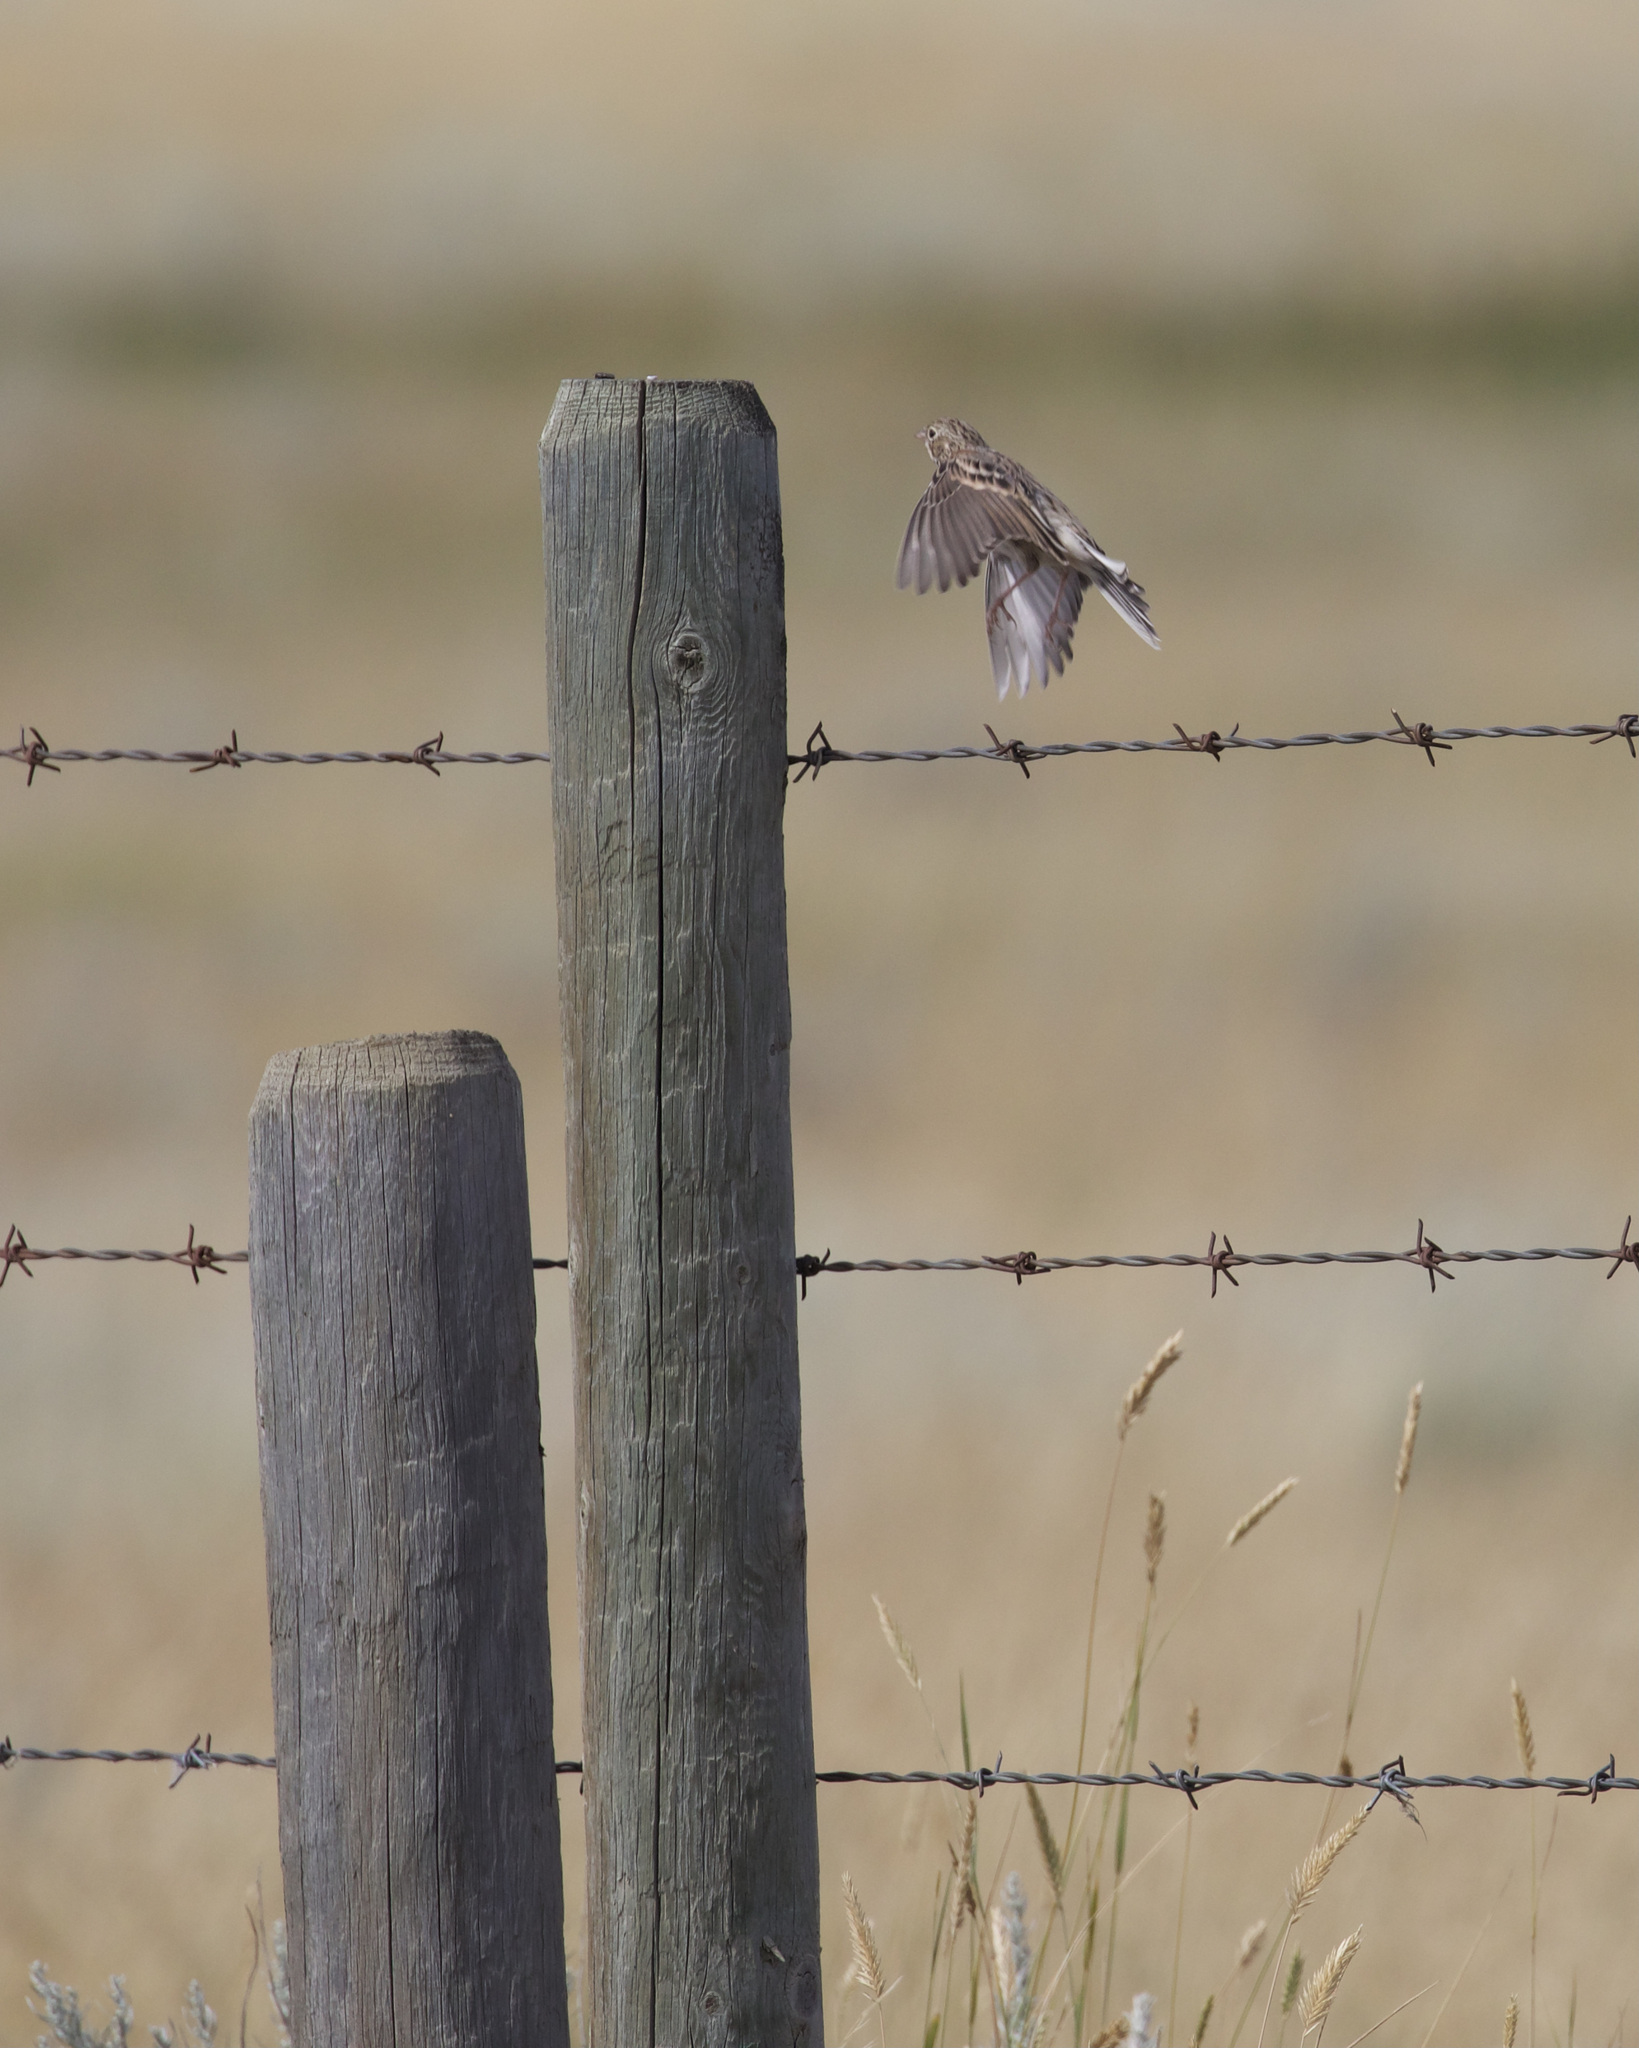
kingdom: Animalia
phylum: Chordata
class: Aves
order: Passeriformes
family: Passerellidae
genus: Pooecetes
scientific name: Pooecetes gramineus
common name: Vesper sparrow
